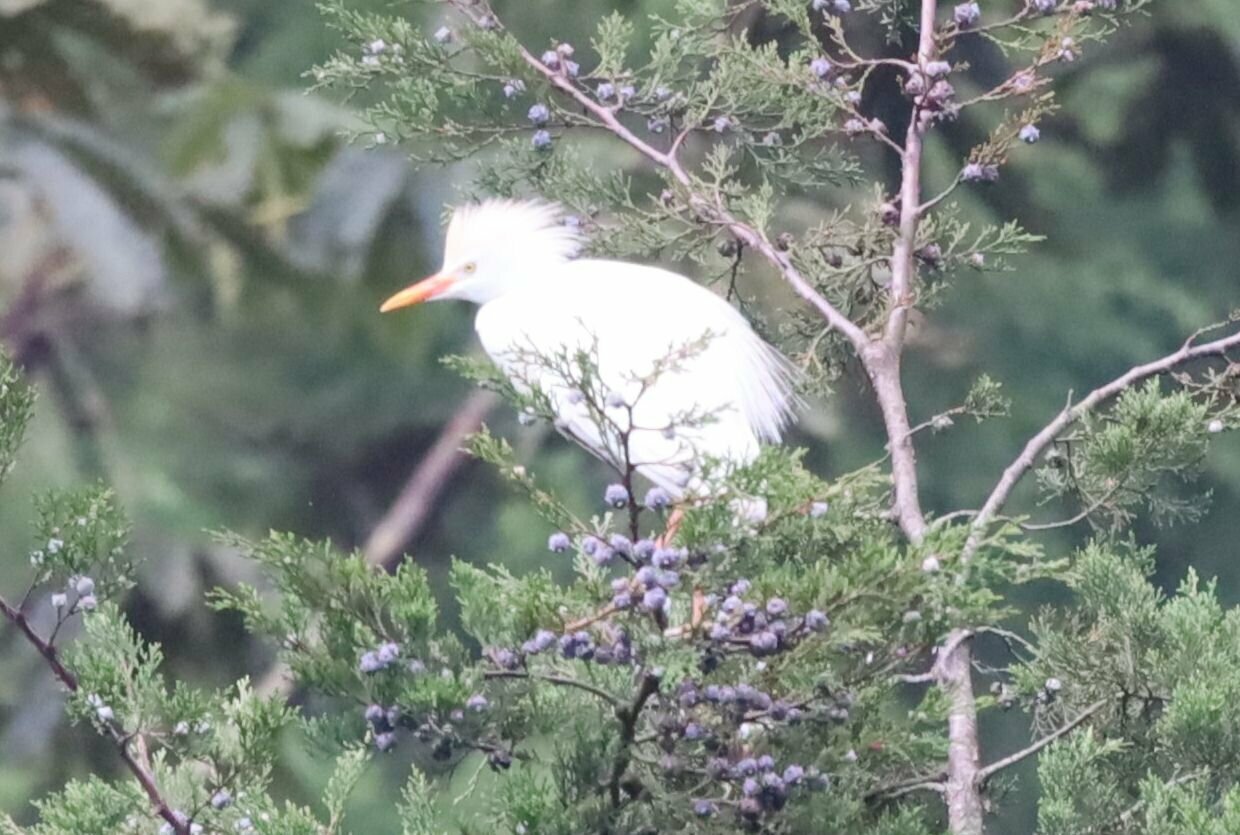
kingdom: Animalia
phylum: Chordata
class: Aves
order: Pelecaniformes
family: Ardeidae
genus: Bubulcus
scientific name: Bubulcus ibis
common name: Cattle egret
